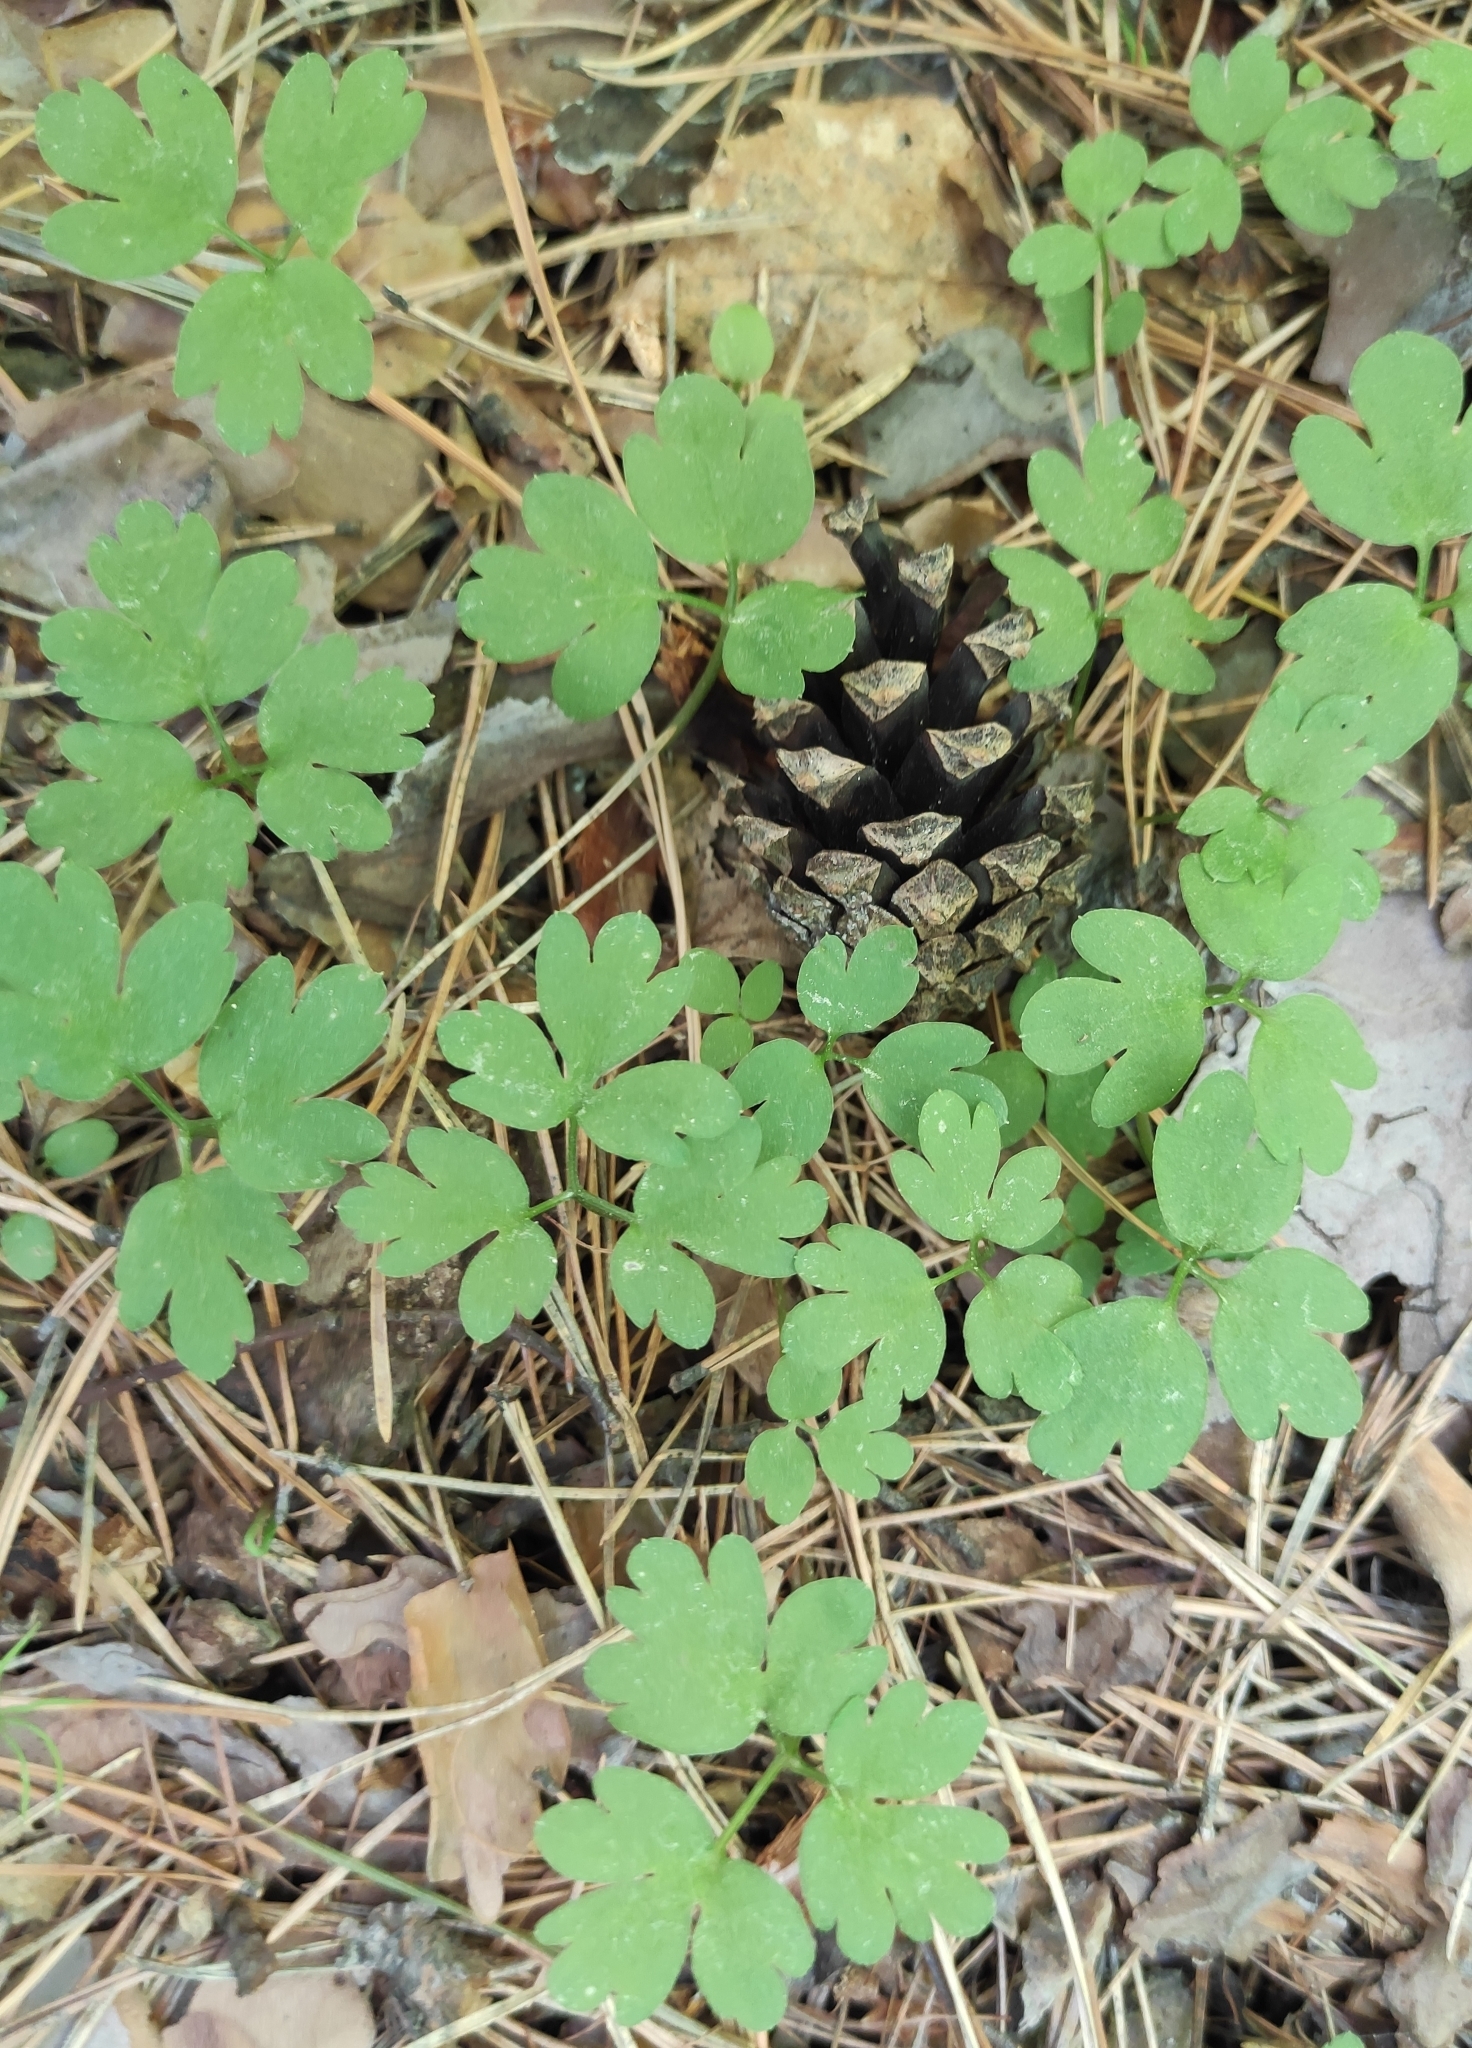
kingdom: Plantae
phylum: Tracheophyta
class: Magnoliopsida
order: Dipsacales
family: Viburnaceae
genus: Adoxa
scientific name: Adoxa moschatellina
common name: Moschatel
